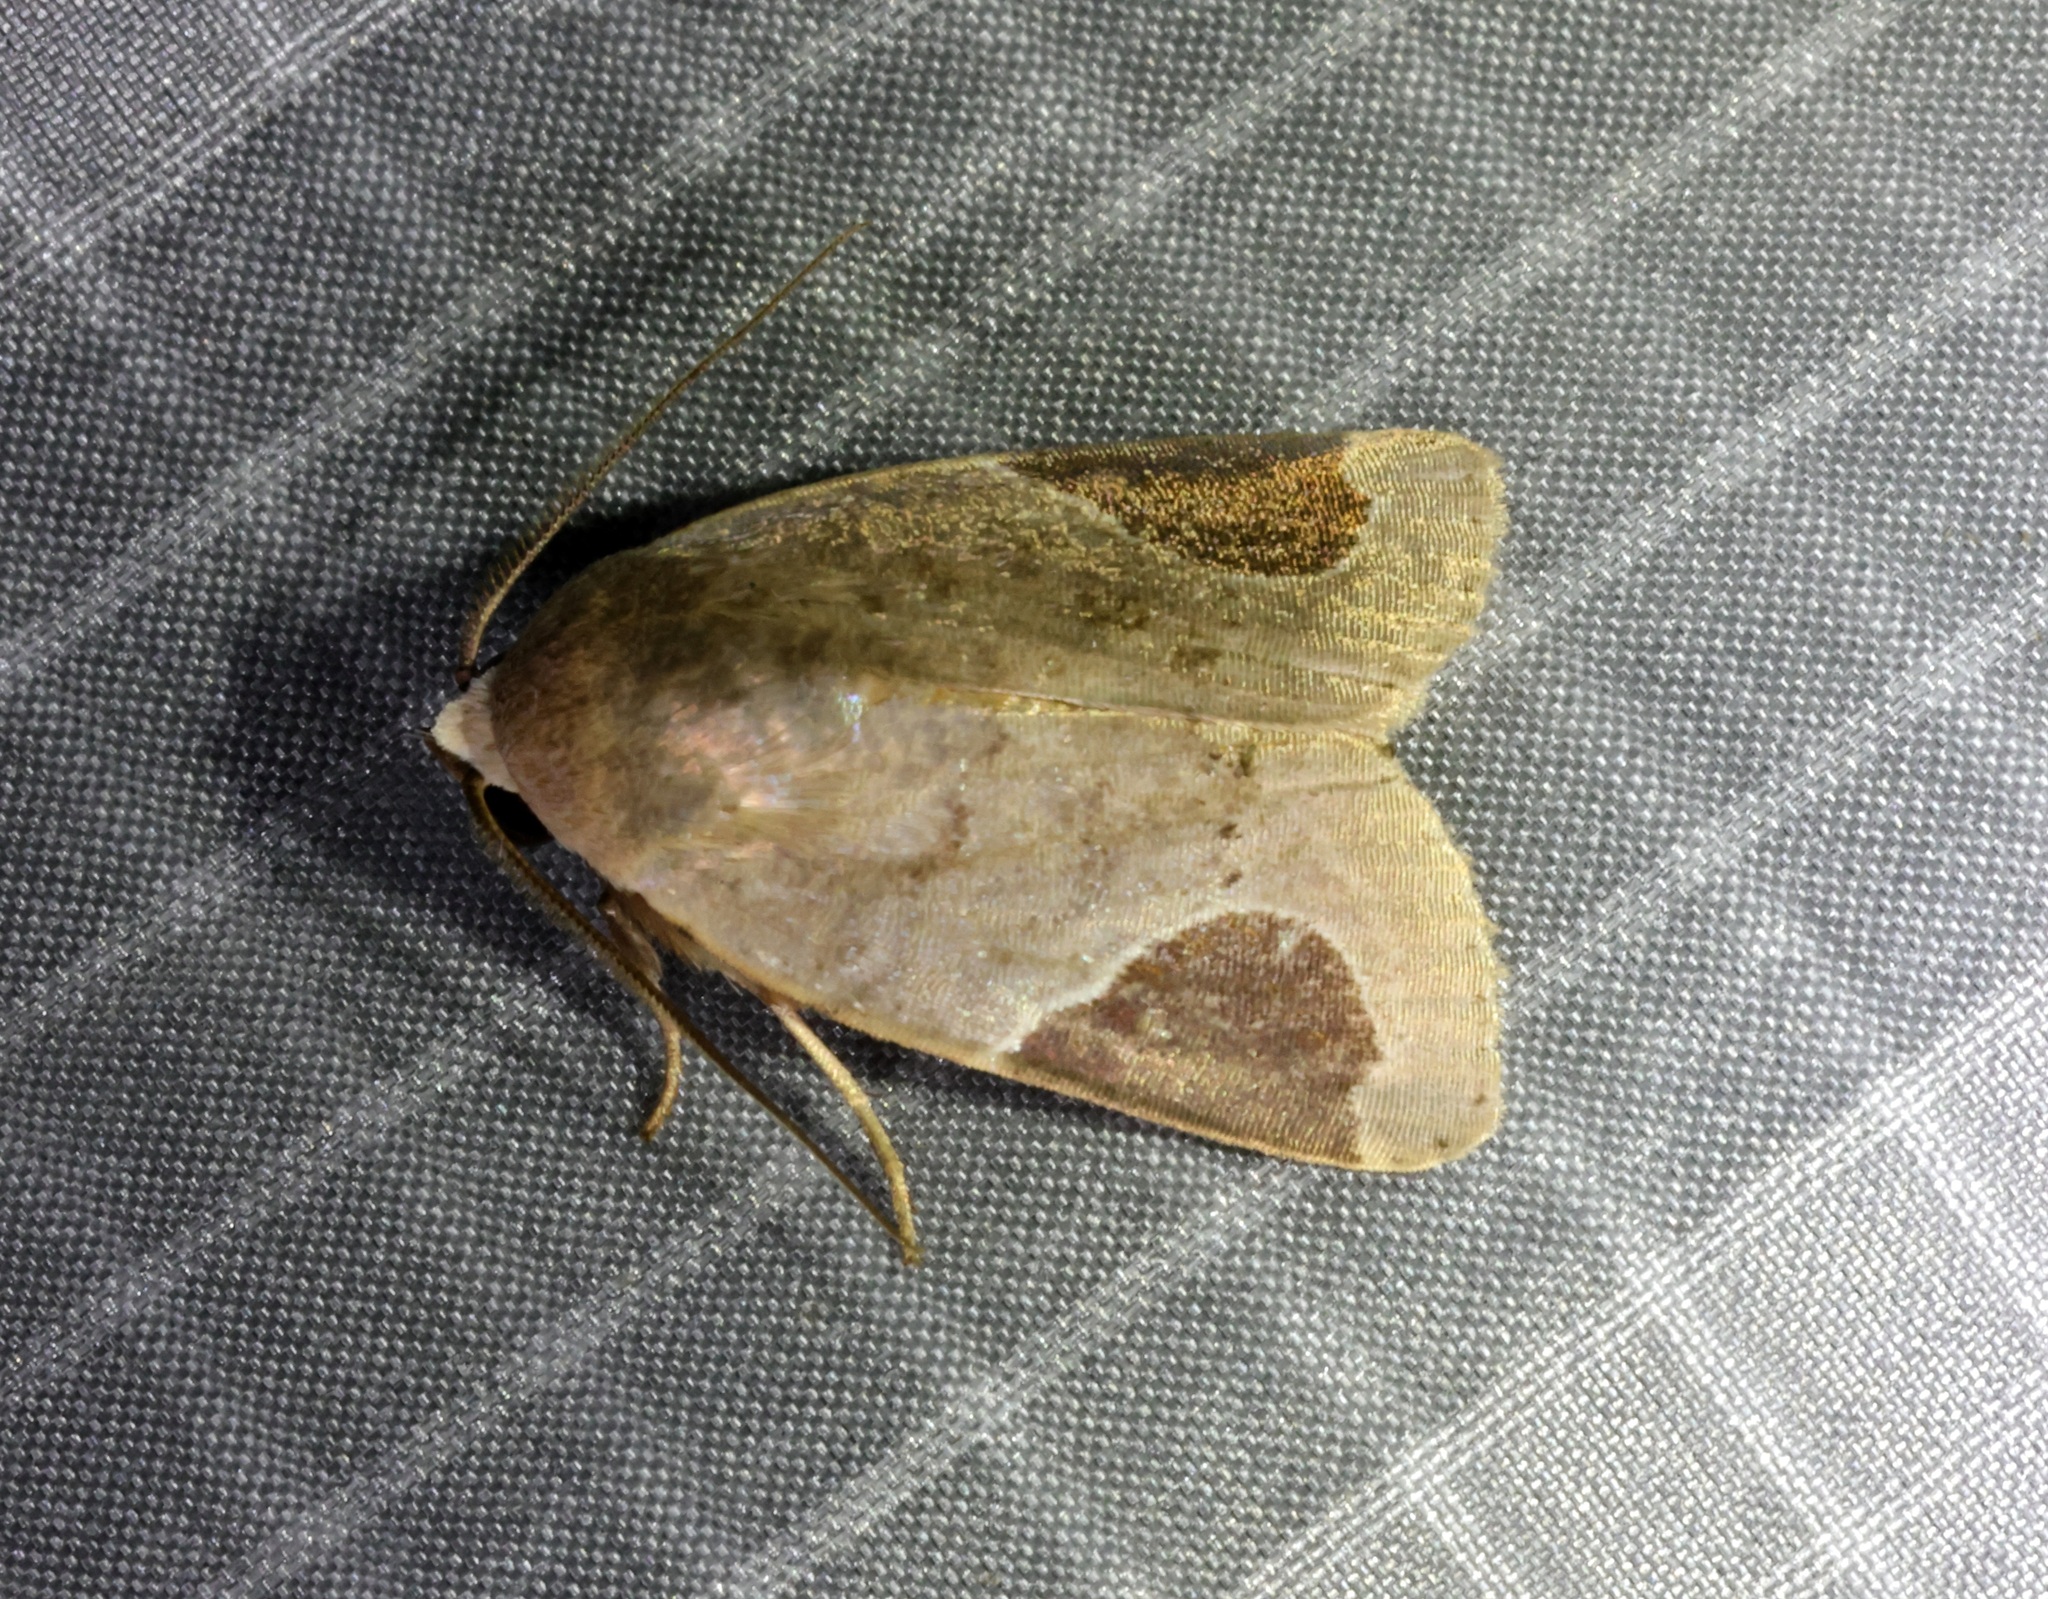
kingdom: Animalia
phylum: Arthropoda
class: Insecta
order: Lepidoptera
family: Noctuidae
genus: Dyrzela
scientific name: Dyrzela plagiata
